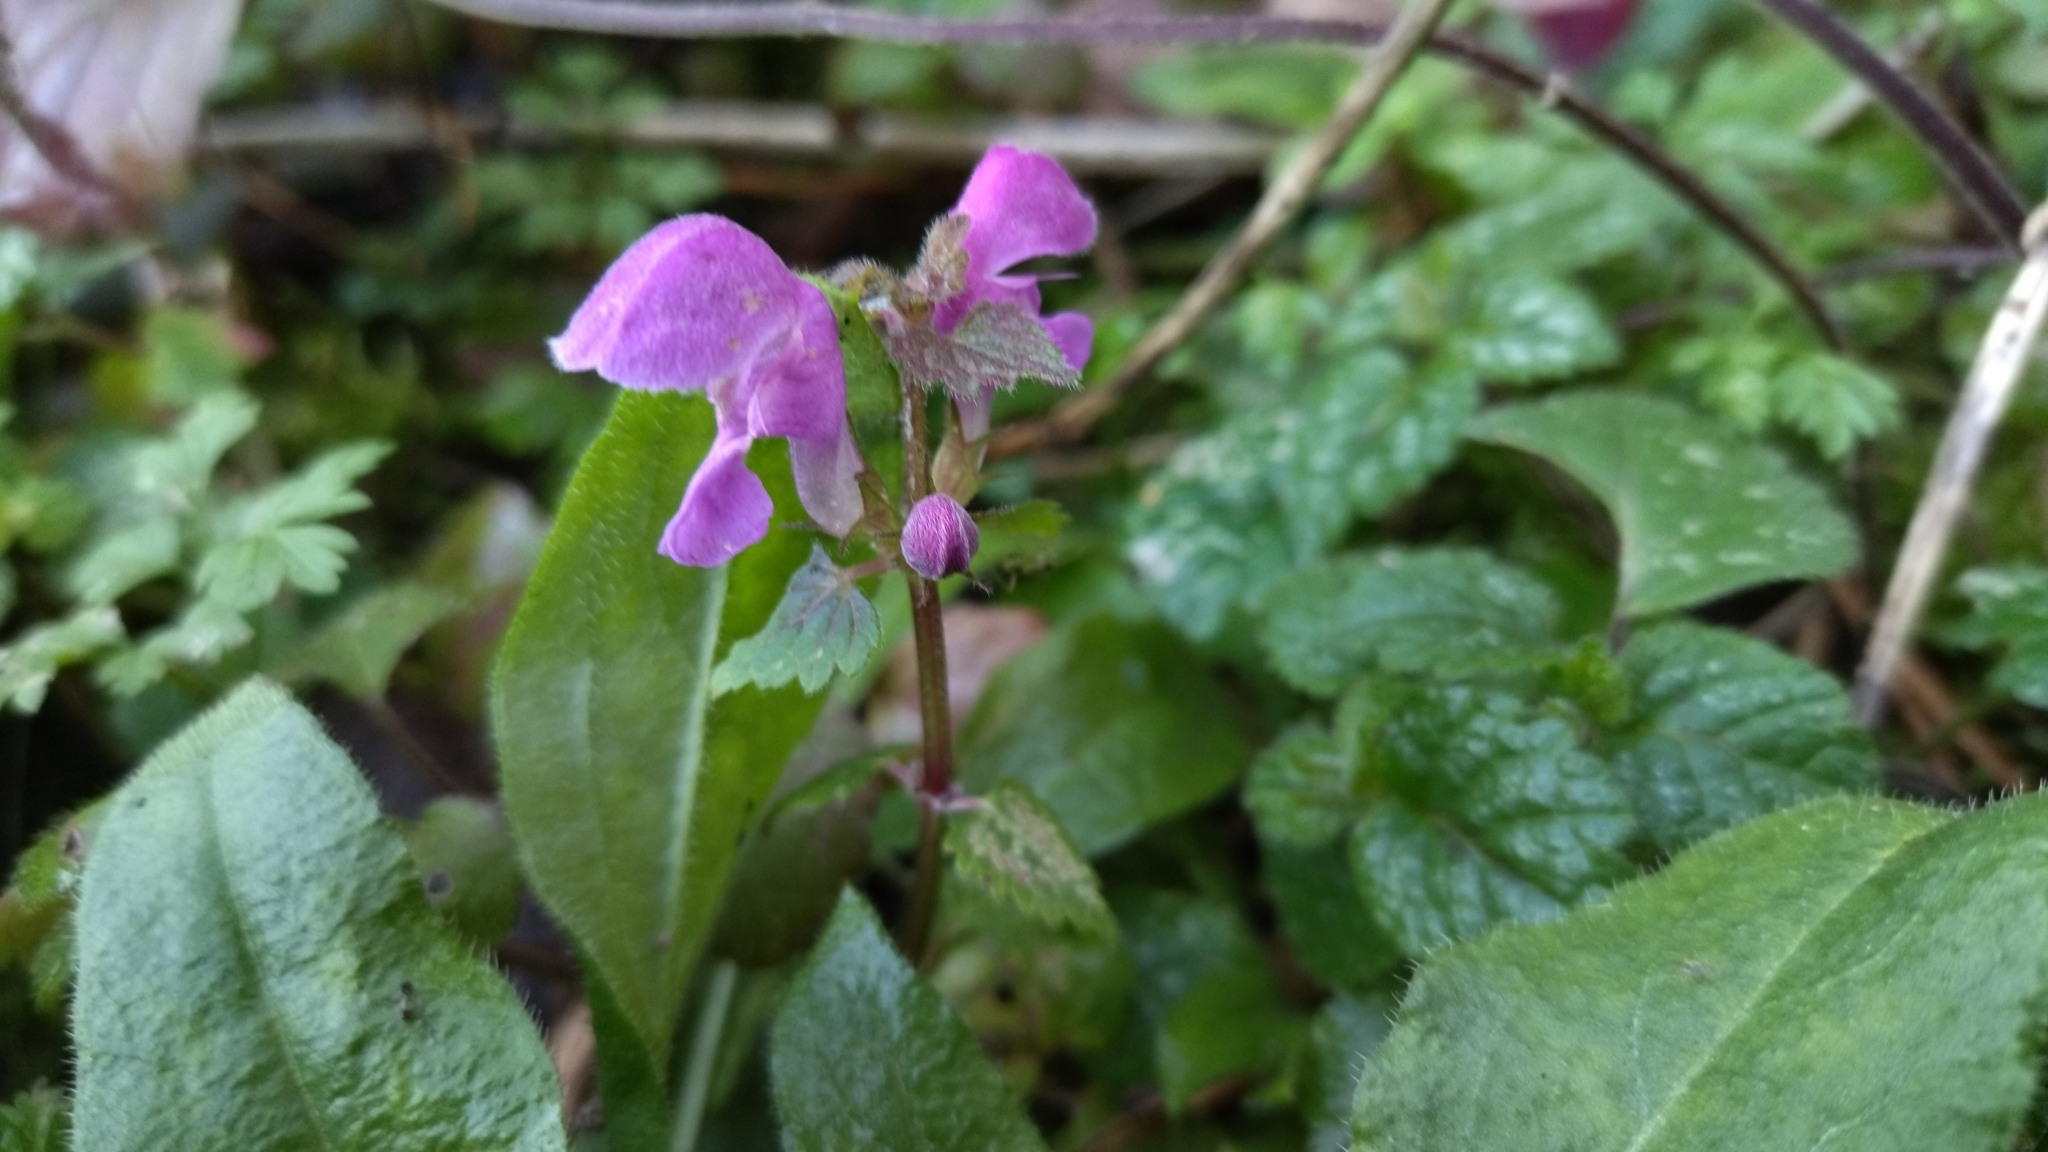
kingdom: Plantae
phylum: Tracheophyta
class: Magnoliopsida
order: Lamiales
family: Lamiaceae
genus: Lamium
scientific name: Lamium maculatum
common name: Spotted dead-nettle
